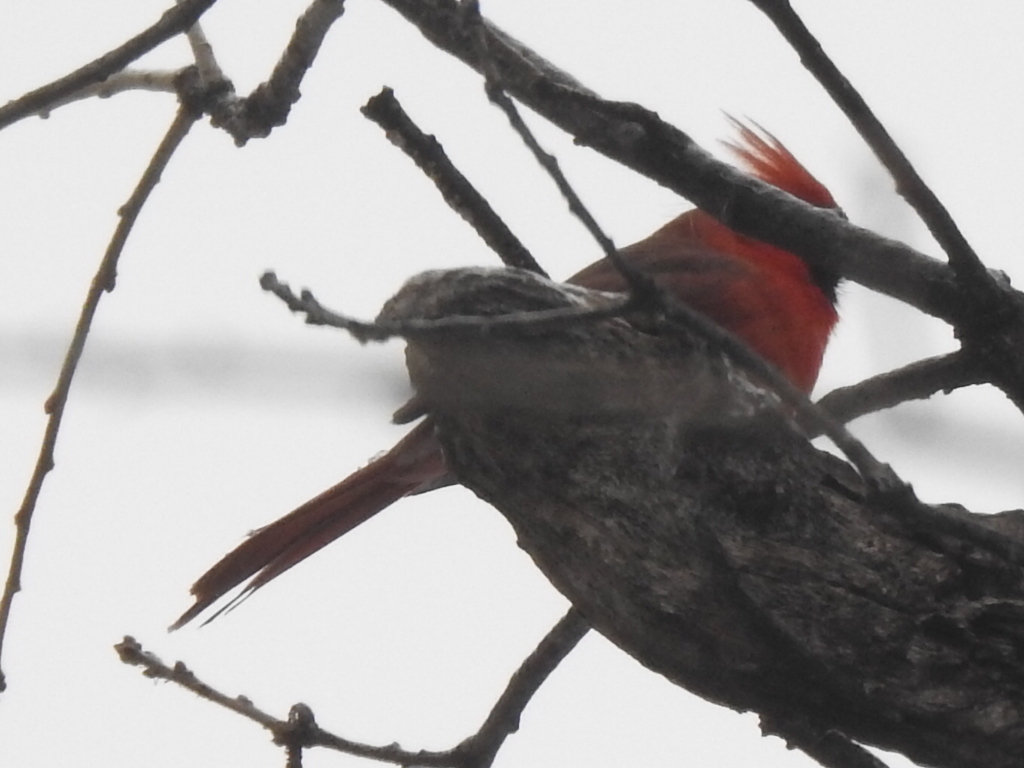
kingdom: Animalia
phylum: Chordata
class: Aves
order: Passeriformes
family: Cardinalidae
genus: Cardinalis
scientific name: Cardinalis cardinalis
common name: Northern cardinal
